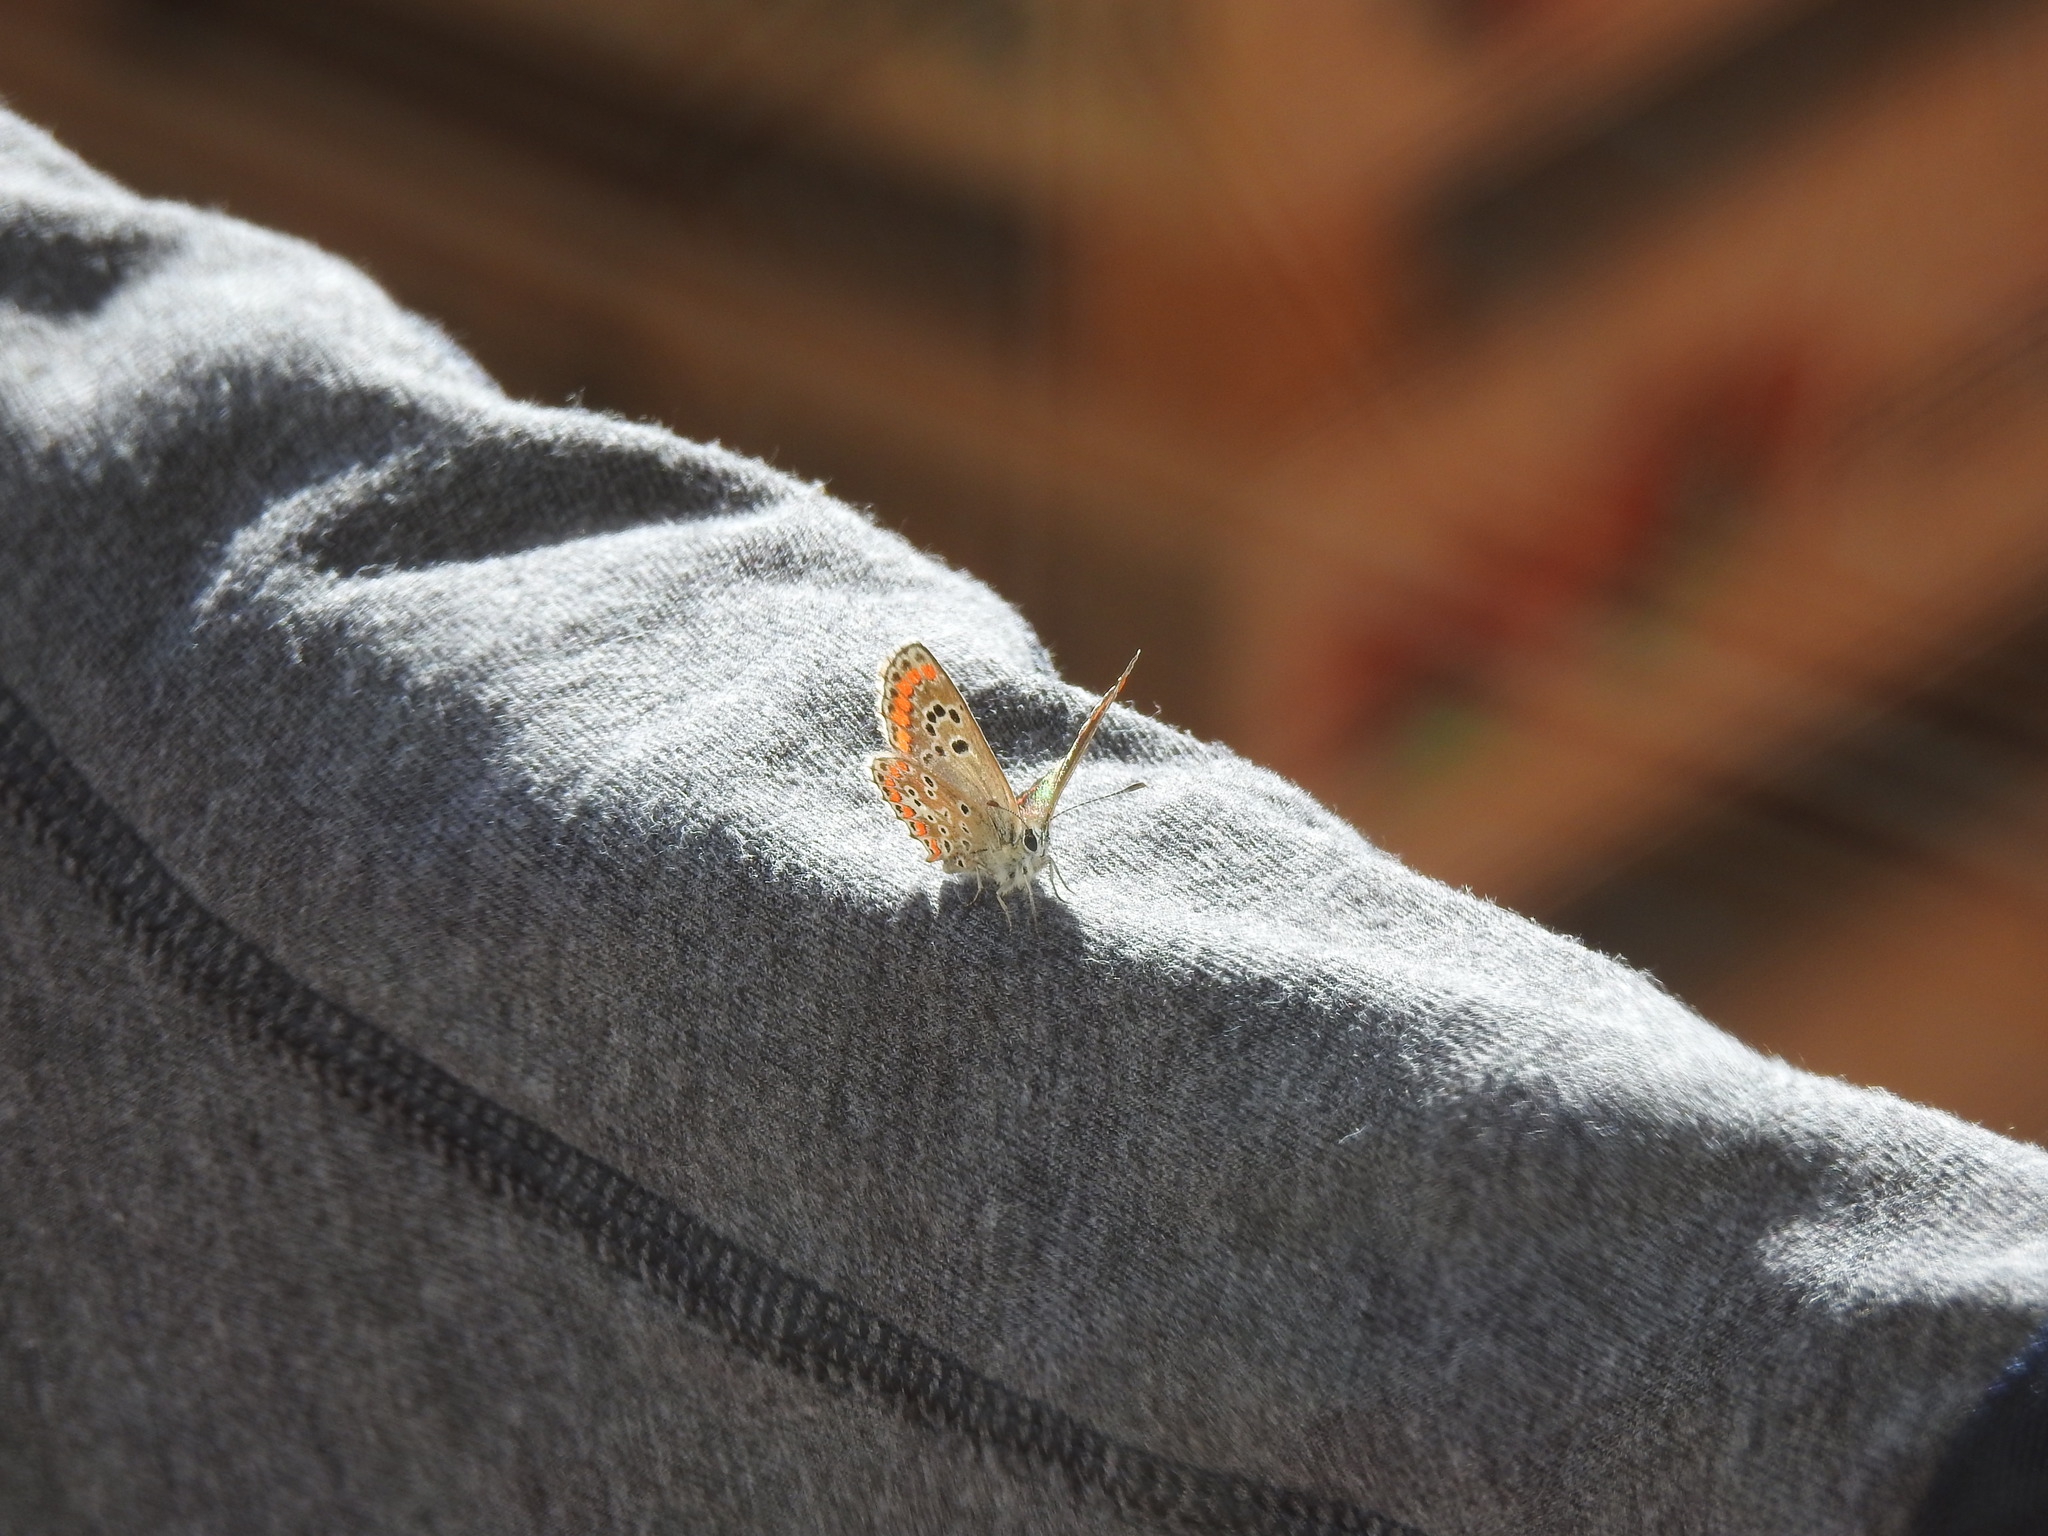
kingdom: Animalia
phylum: Arthropoda
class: Insecta
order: Lepidoptera
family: Lycaenidae
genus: Aricia
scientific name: Aricia cramera
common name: Eschscholtz´s brown  argus
